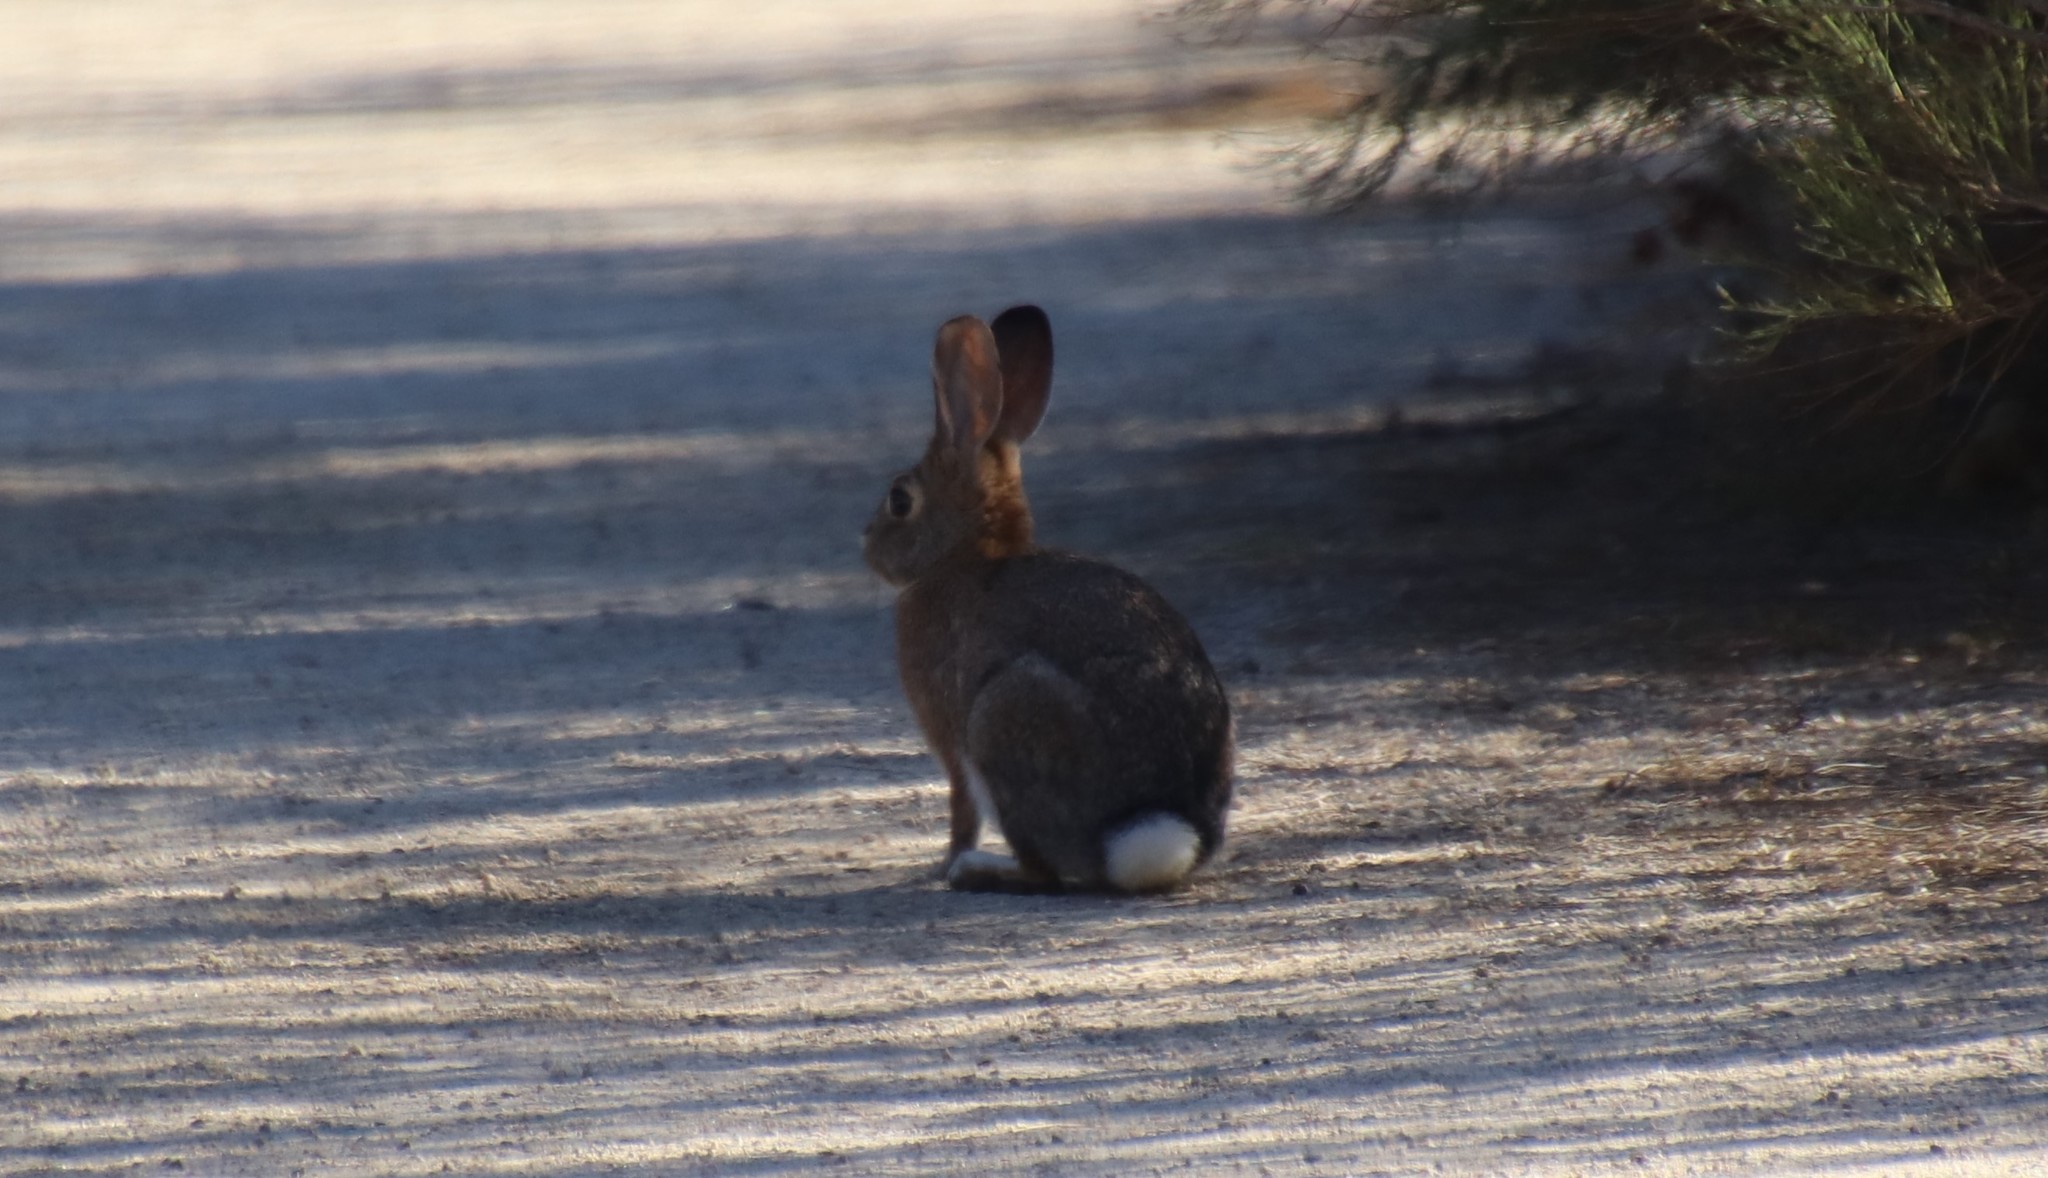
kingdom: Animalia
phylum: Chordata
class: Mammalia
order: Lagomorpha
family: Leporidae
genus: Sylvilagus
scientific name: Sylvilagus audubonii
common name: Desert cottontail
